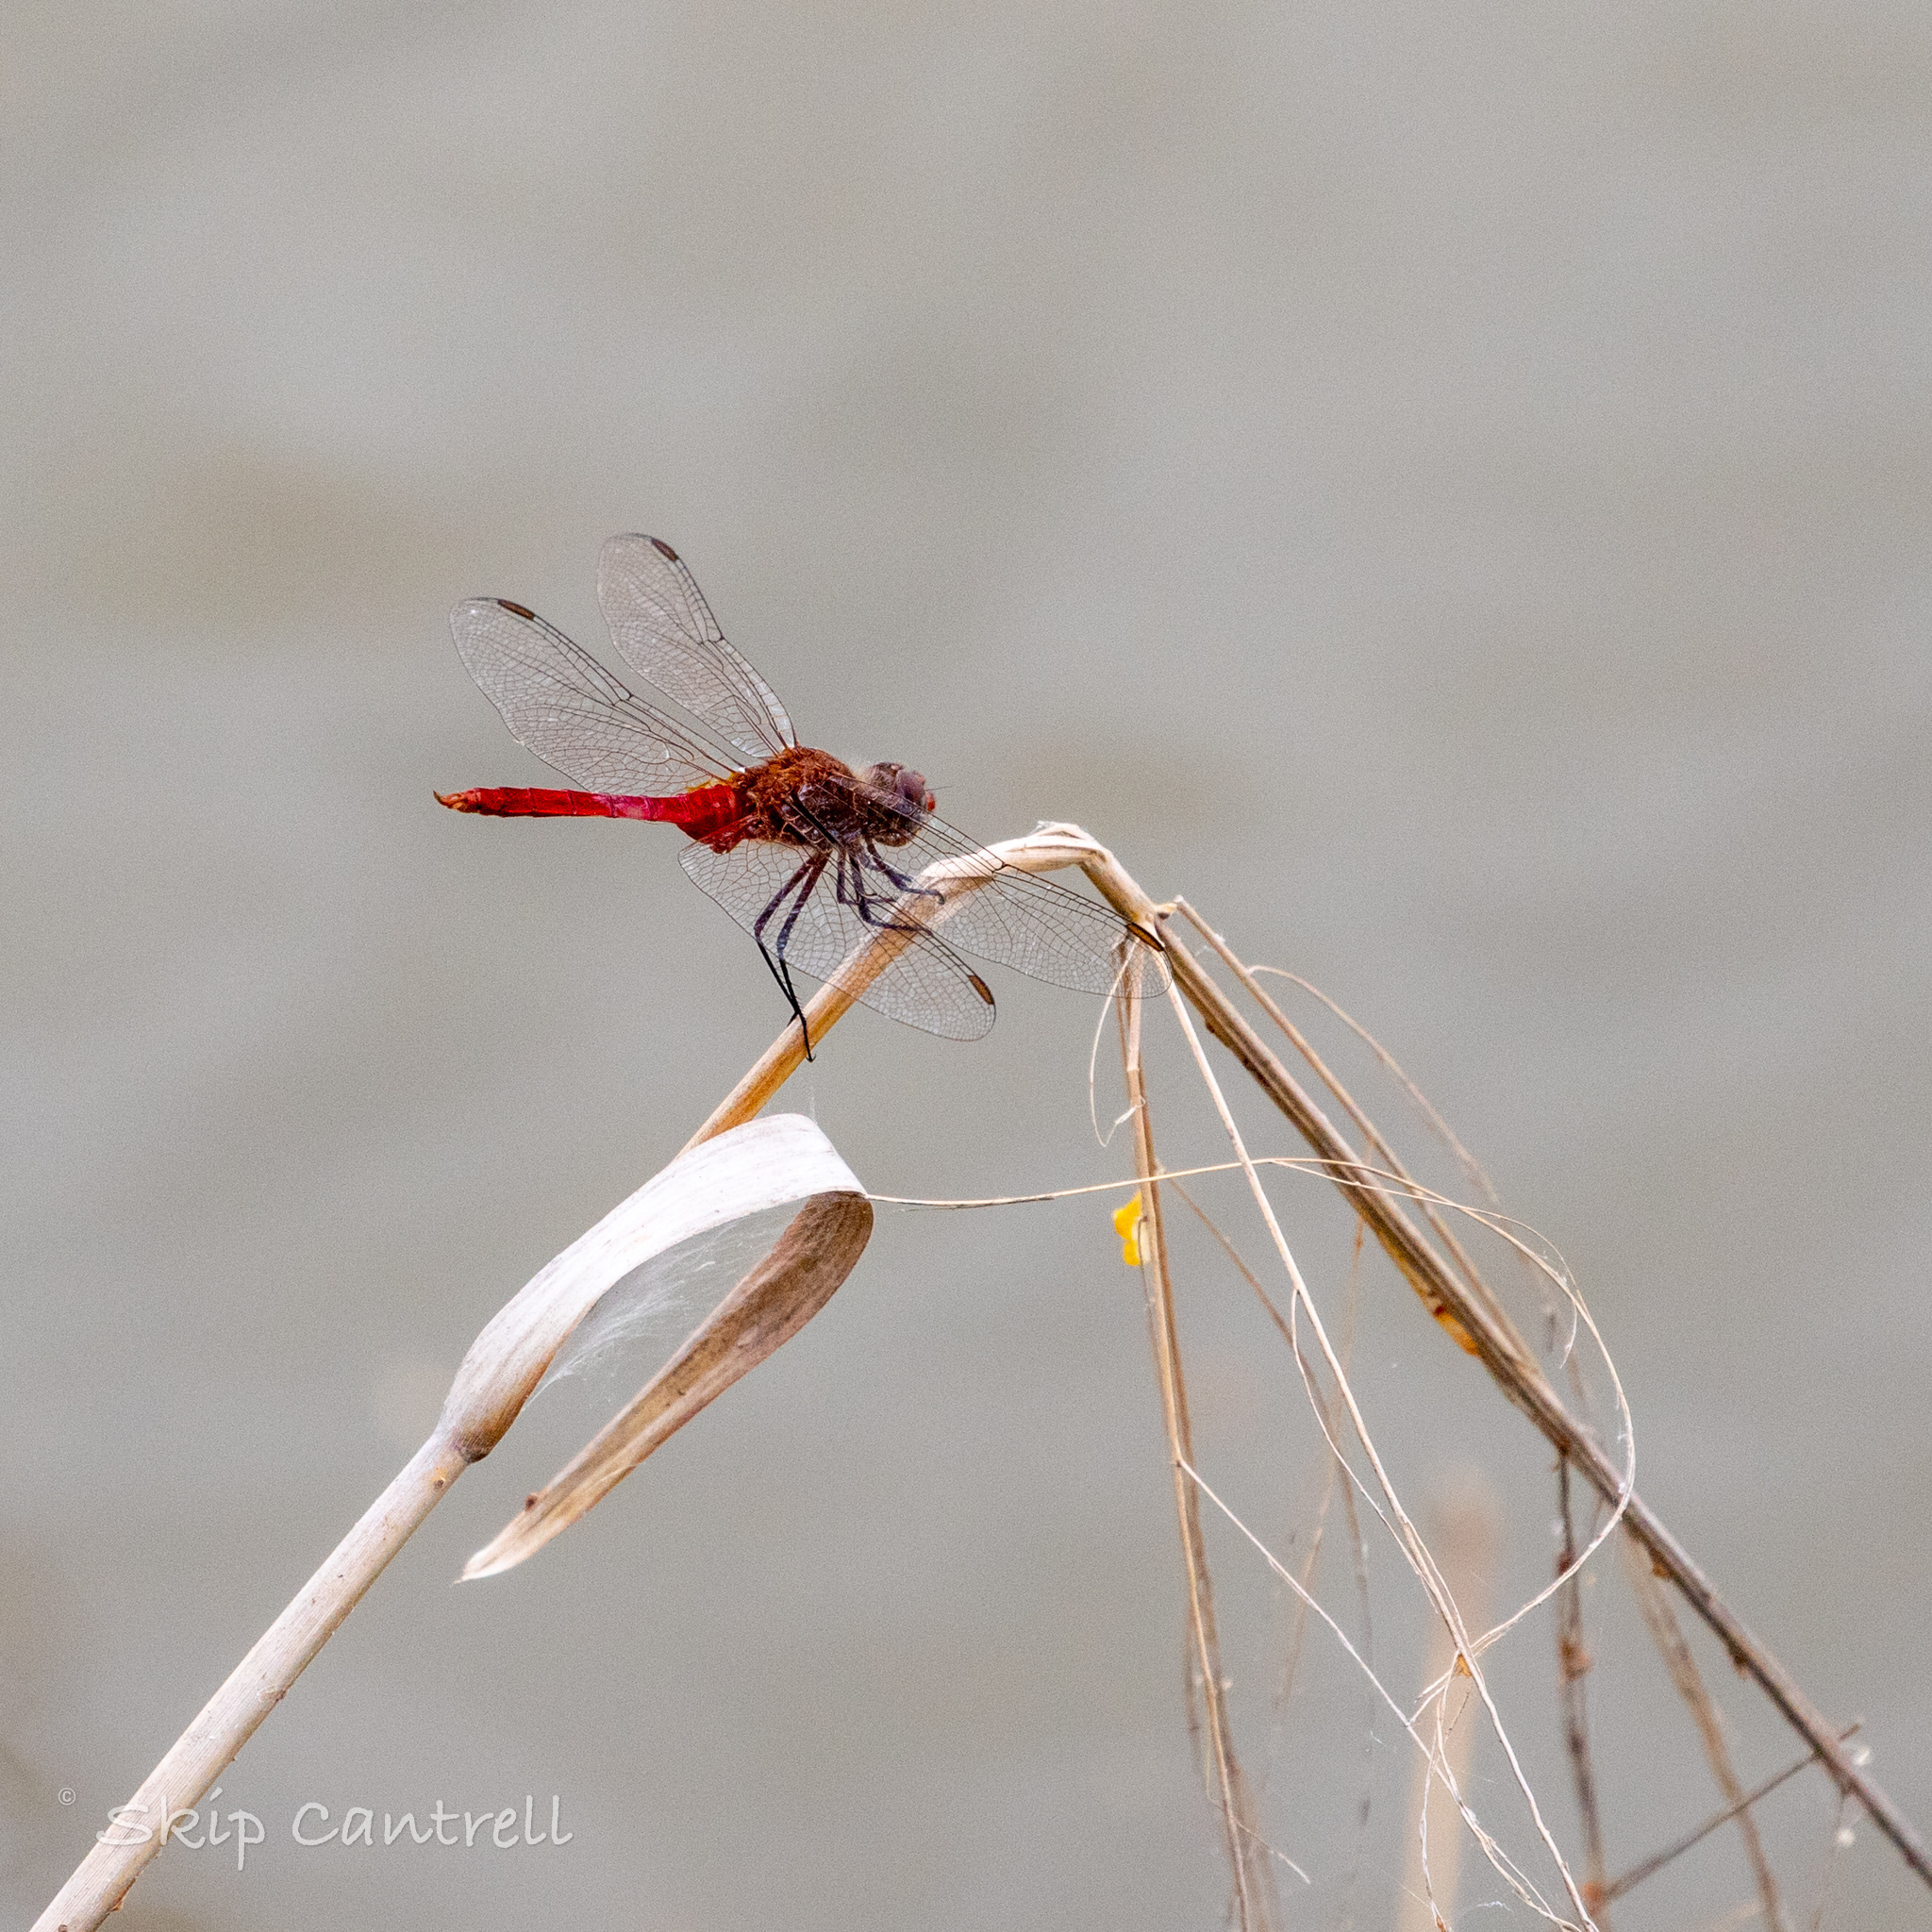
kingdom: Animalia
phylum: Arthropoda
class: Insecta
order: Odonata
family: Libellulidae
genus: Brachymesia
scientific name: Brachymesia furcata
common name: Red-taled pennant
